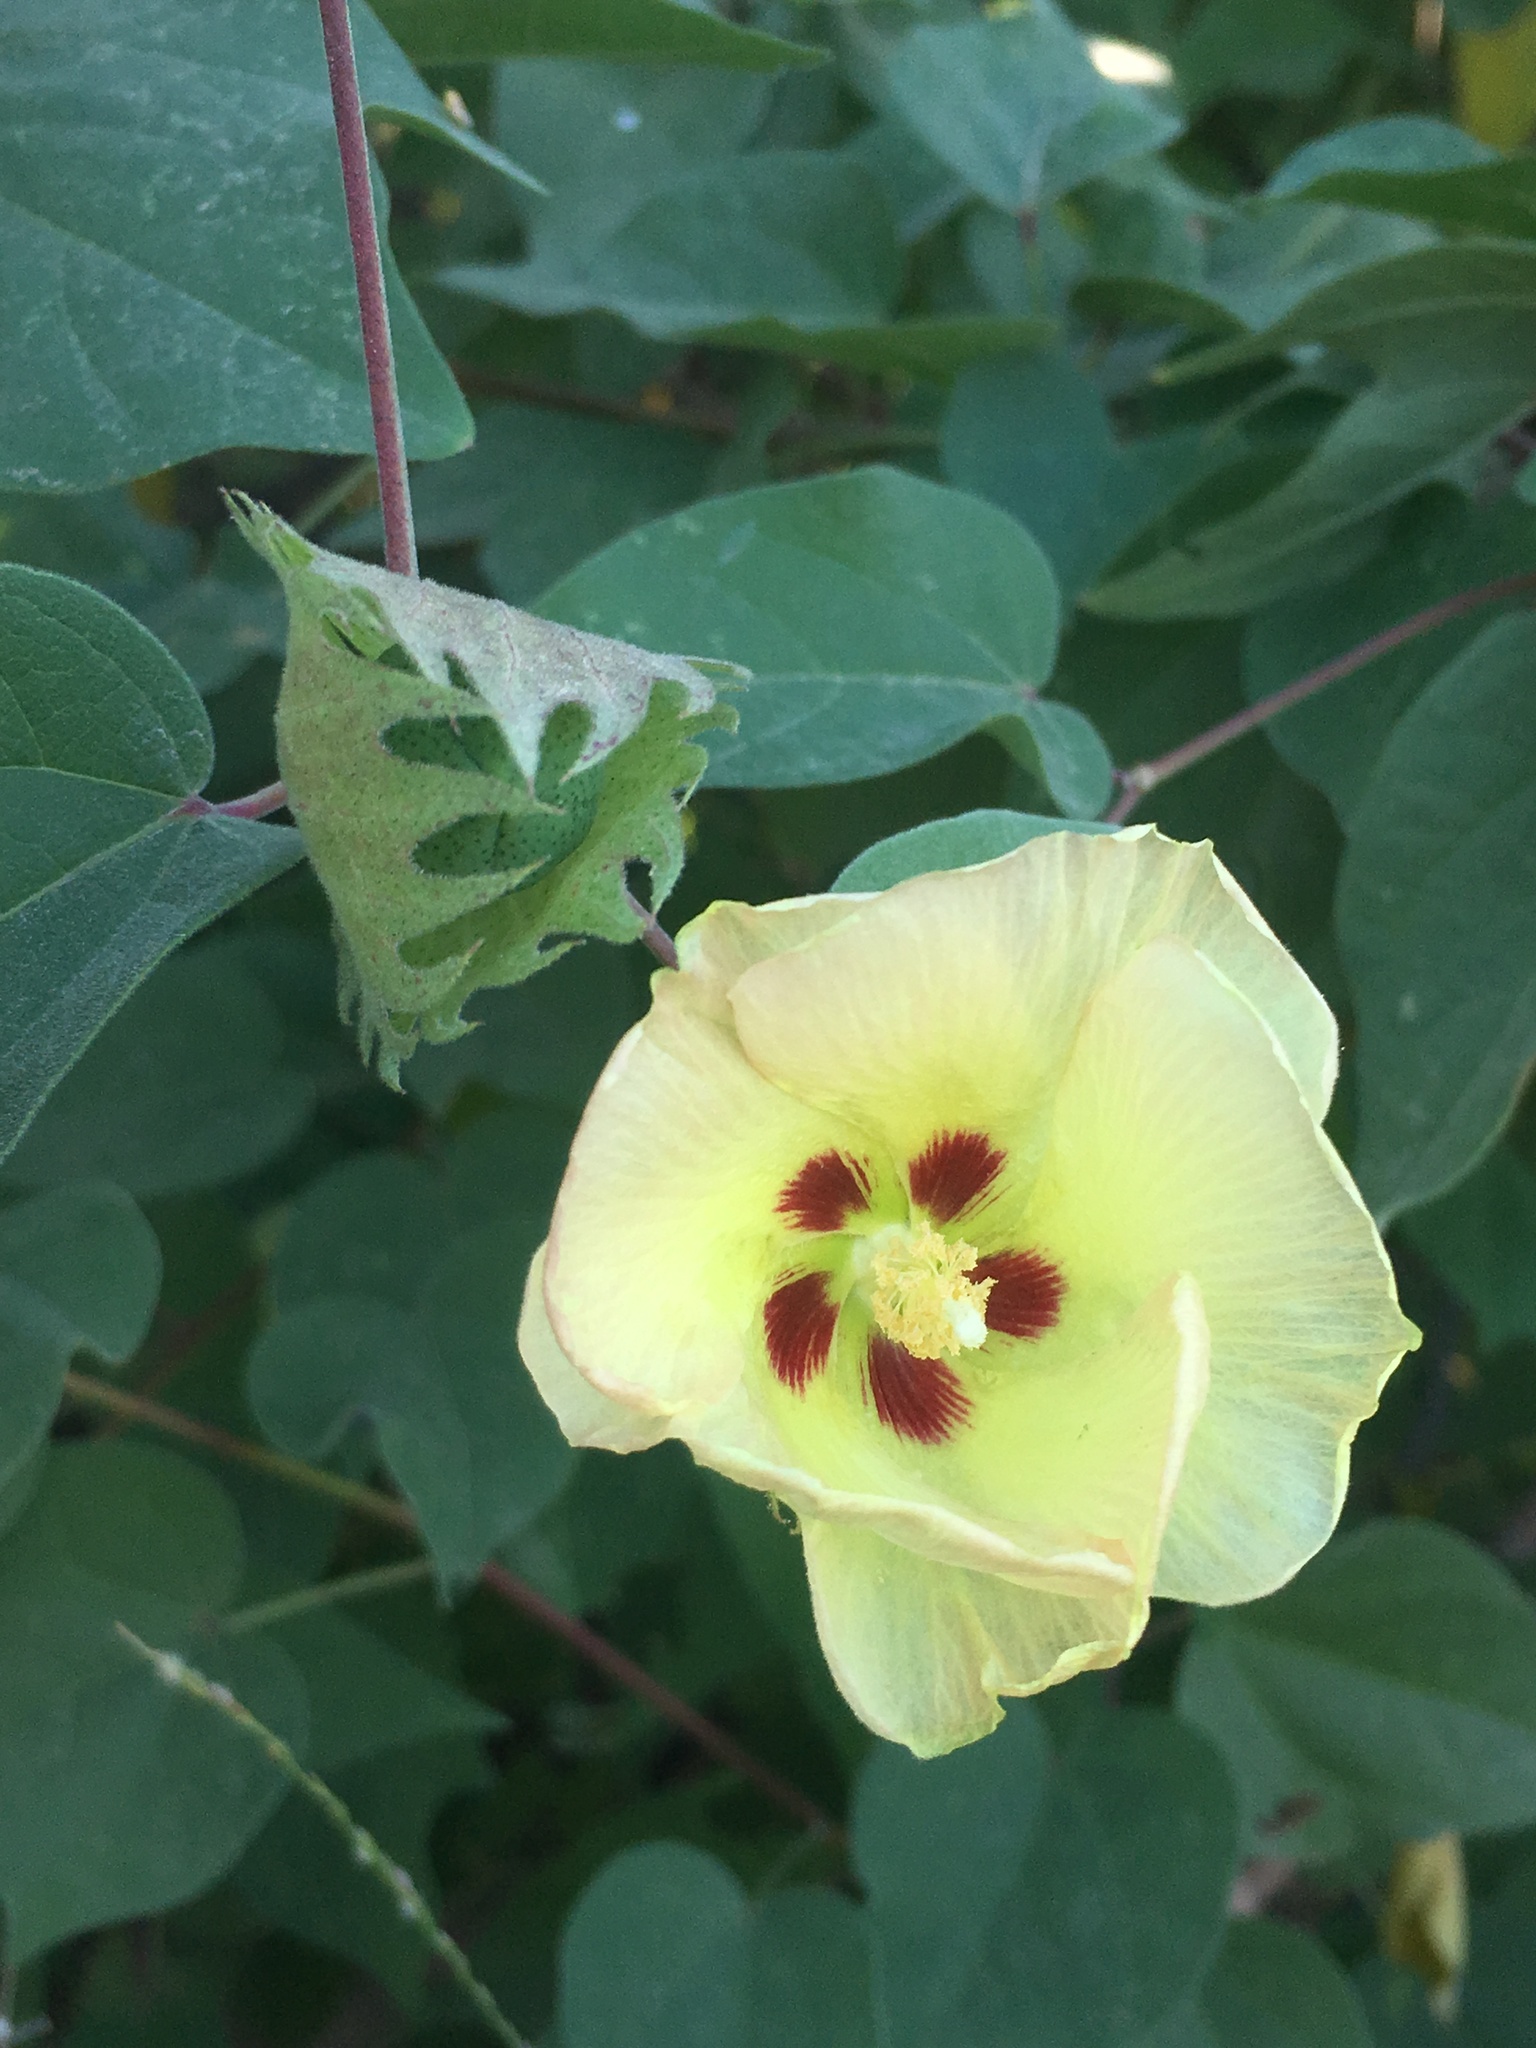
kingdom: Plantae
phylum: Tracheophyta
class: Magnoliopsida
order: Malvales
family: Malvaceae
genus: Gossypium
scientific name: Gossypium klotzschianum
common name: Galapagos cotton
